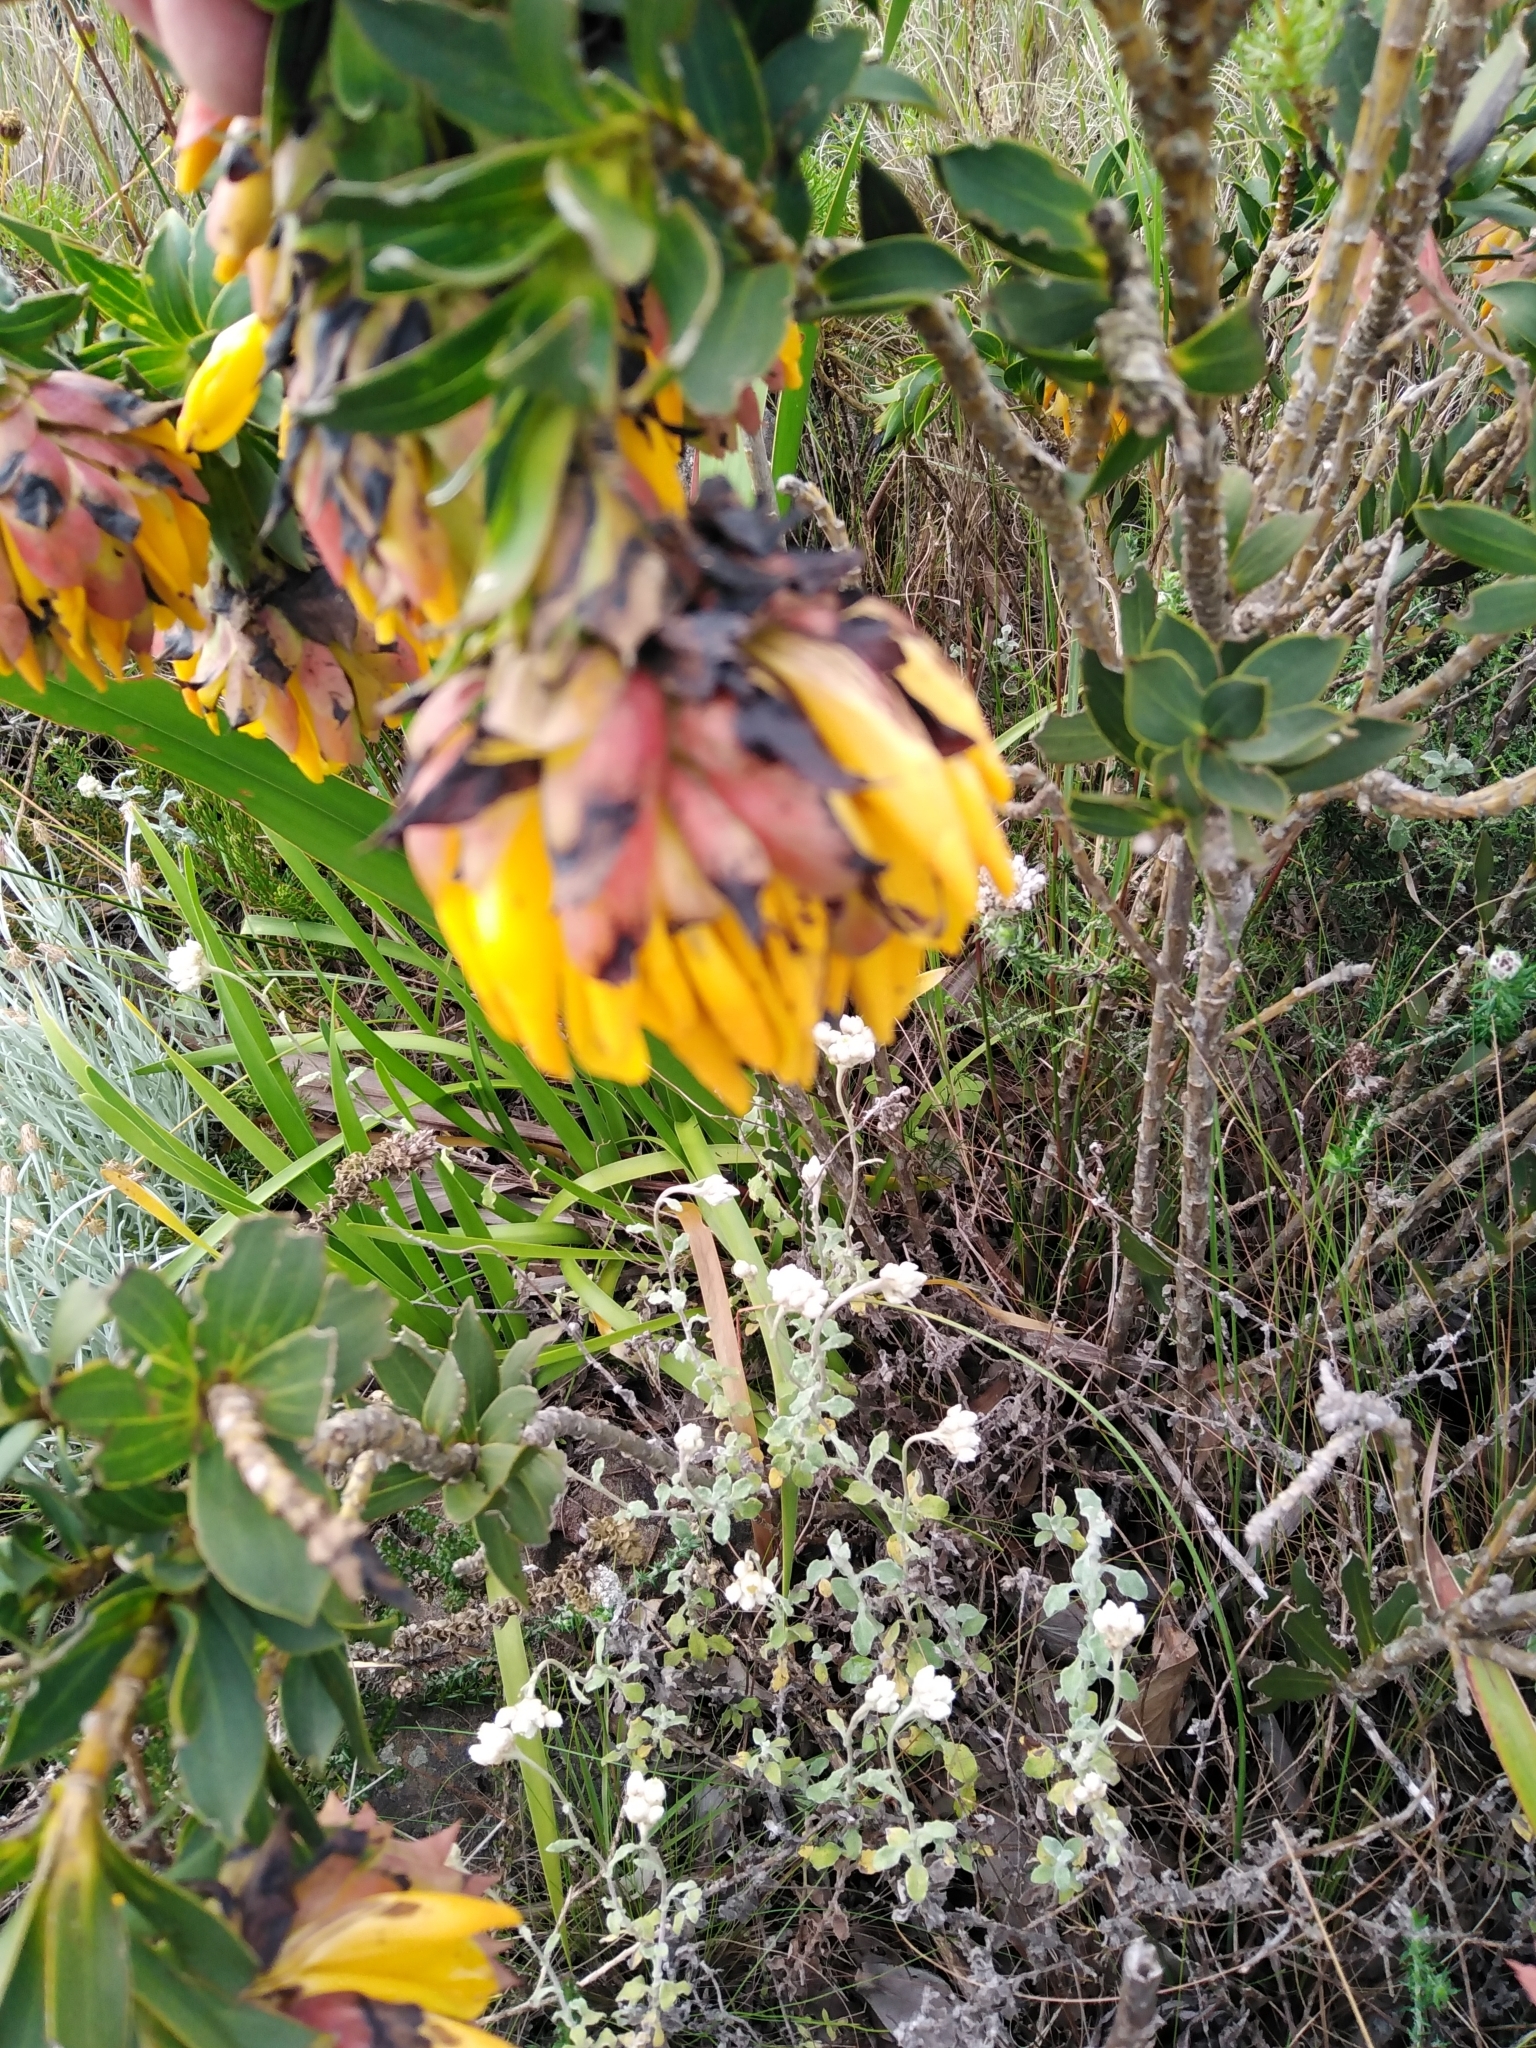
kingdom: Plantae
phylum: Tracheophyta
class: Magnoliopsida
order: Fabales
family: Fabaceae
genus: Liparia
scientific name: Liparia splendens
